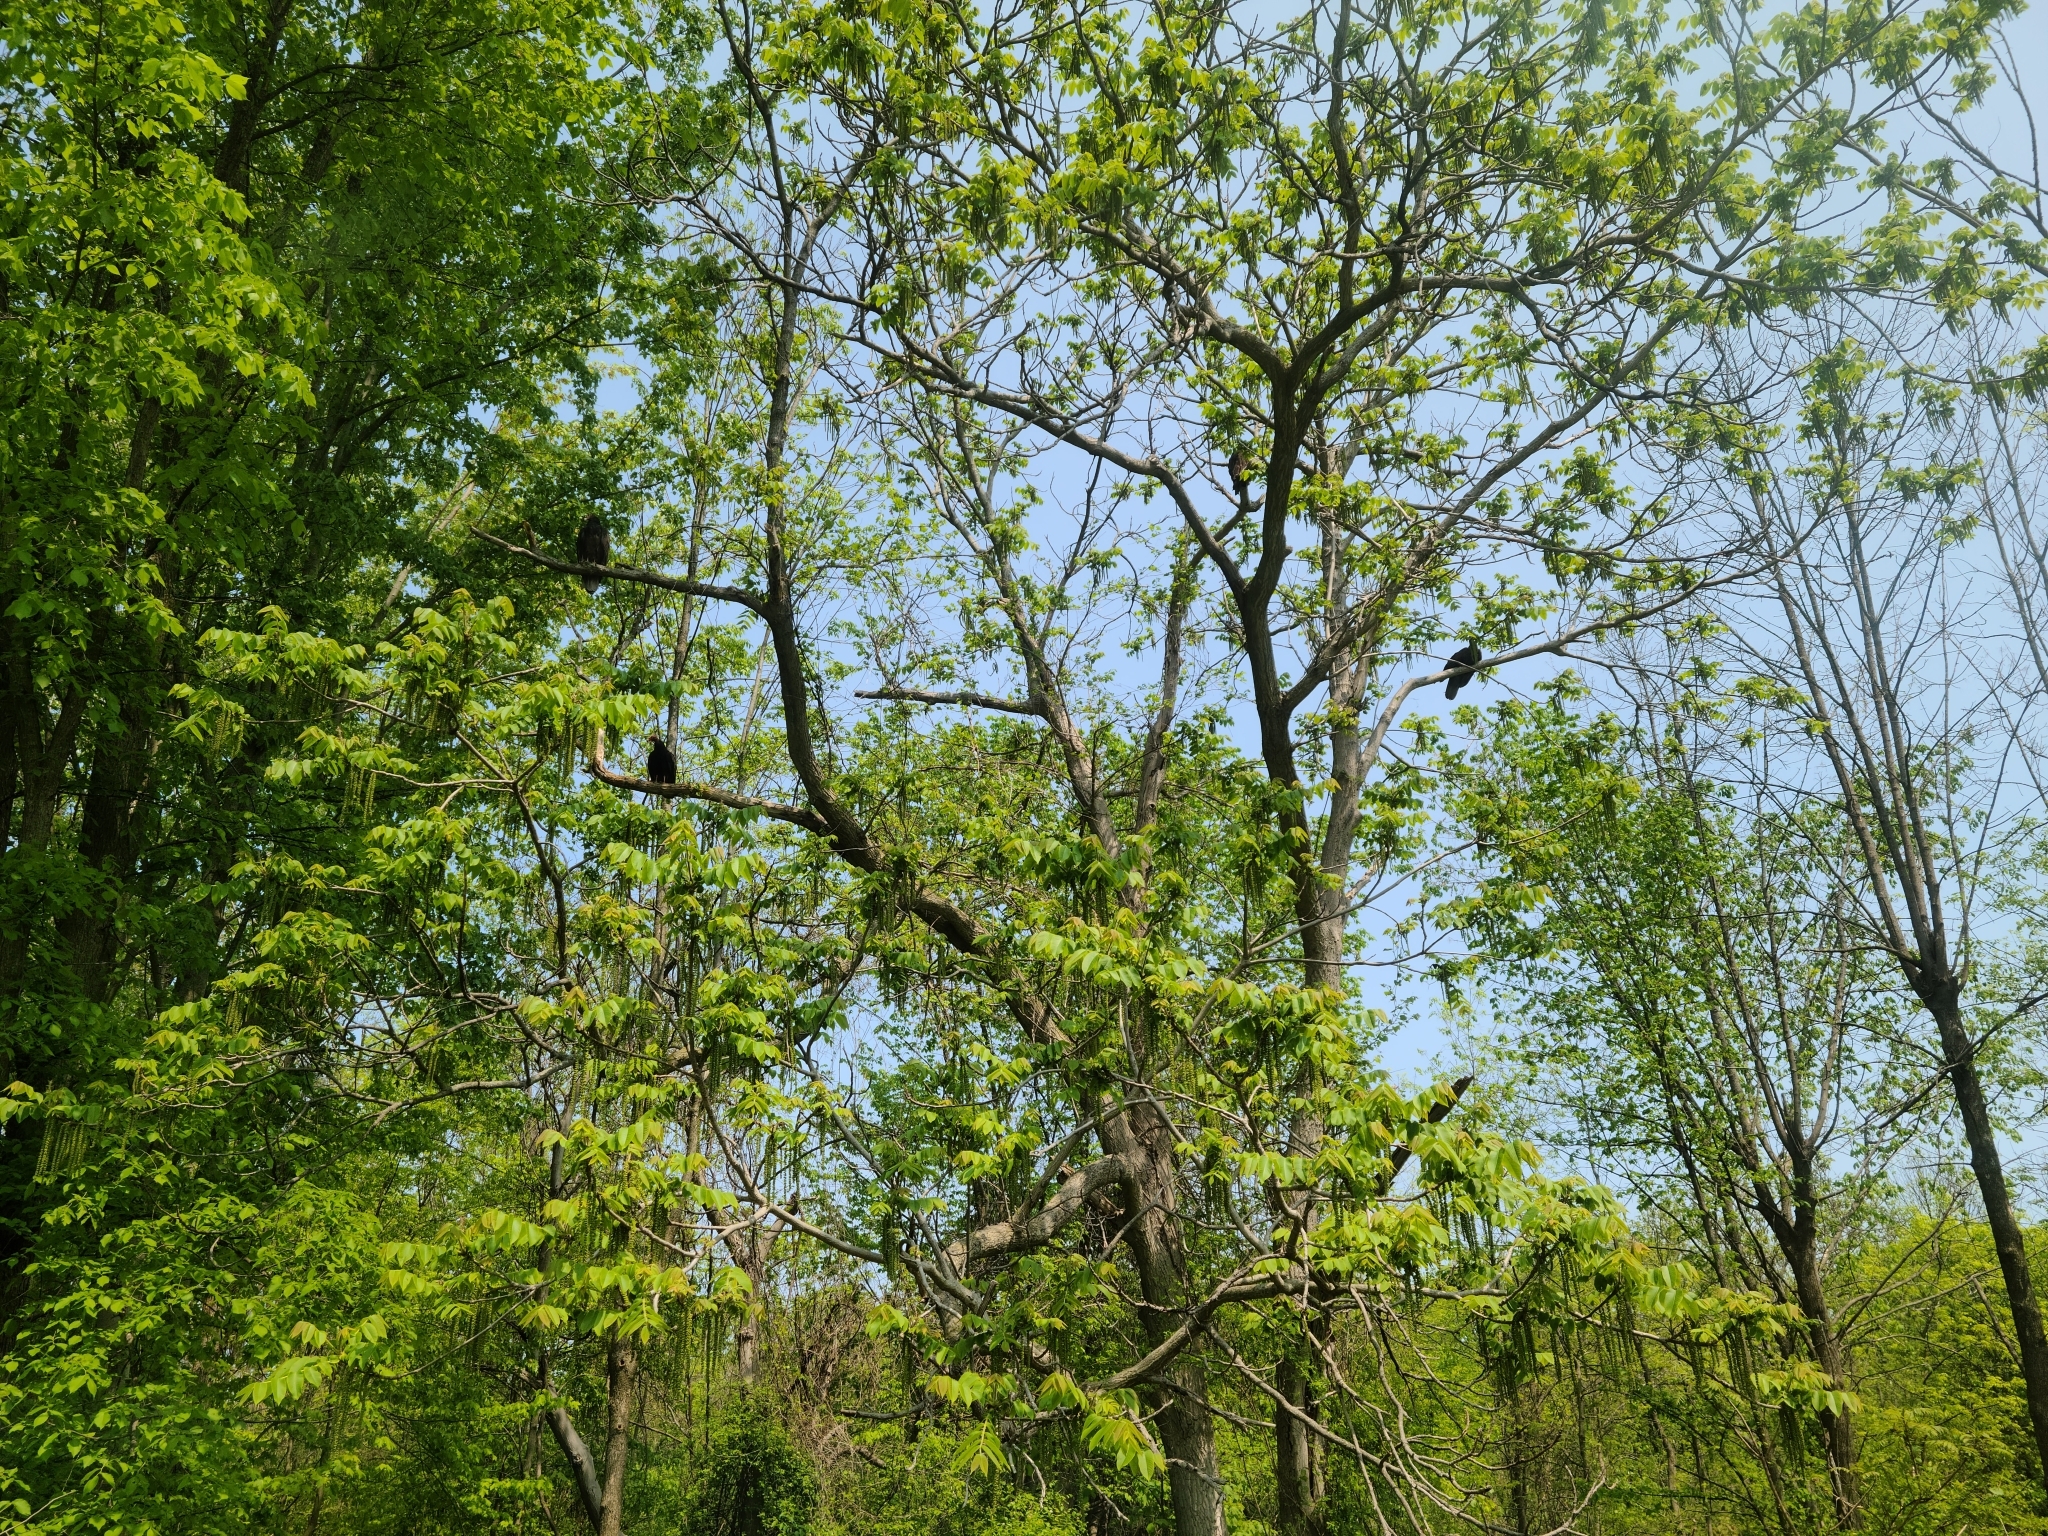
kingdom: Animalia
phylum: Chordata
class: Aves
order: Accipitriformes
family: Cathartidae
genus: Cathartes
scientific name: Cathartes aura
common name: Turkey vulture
